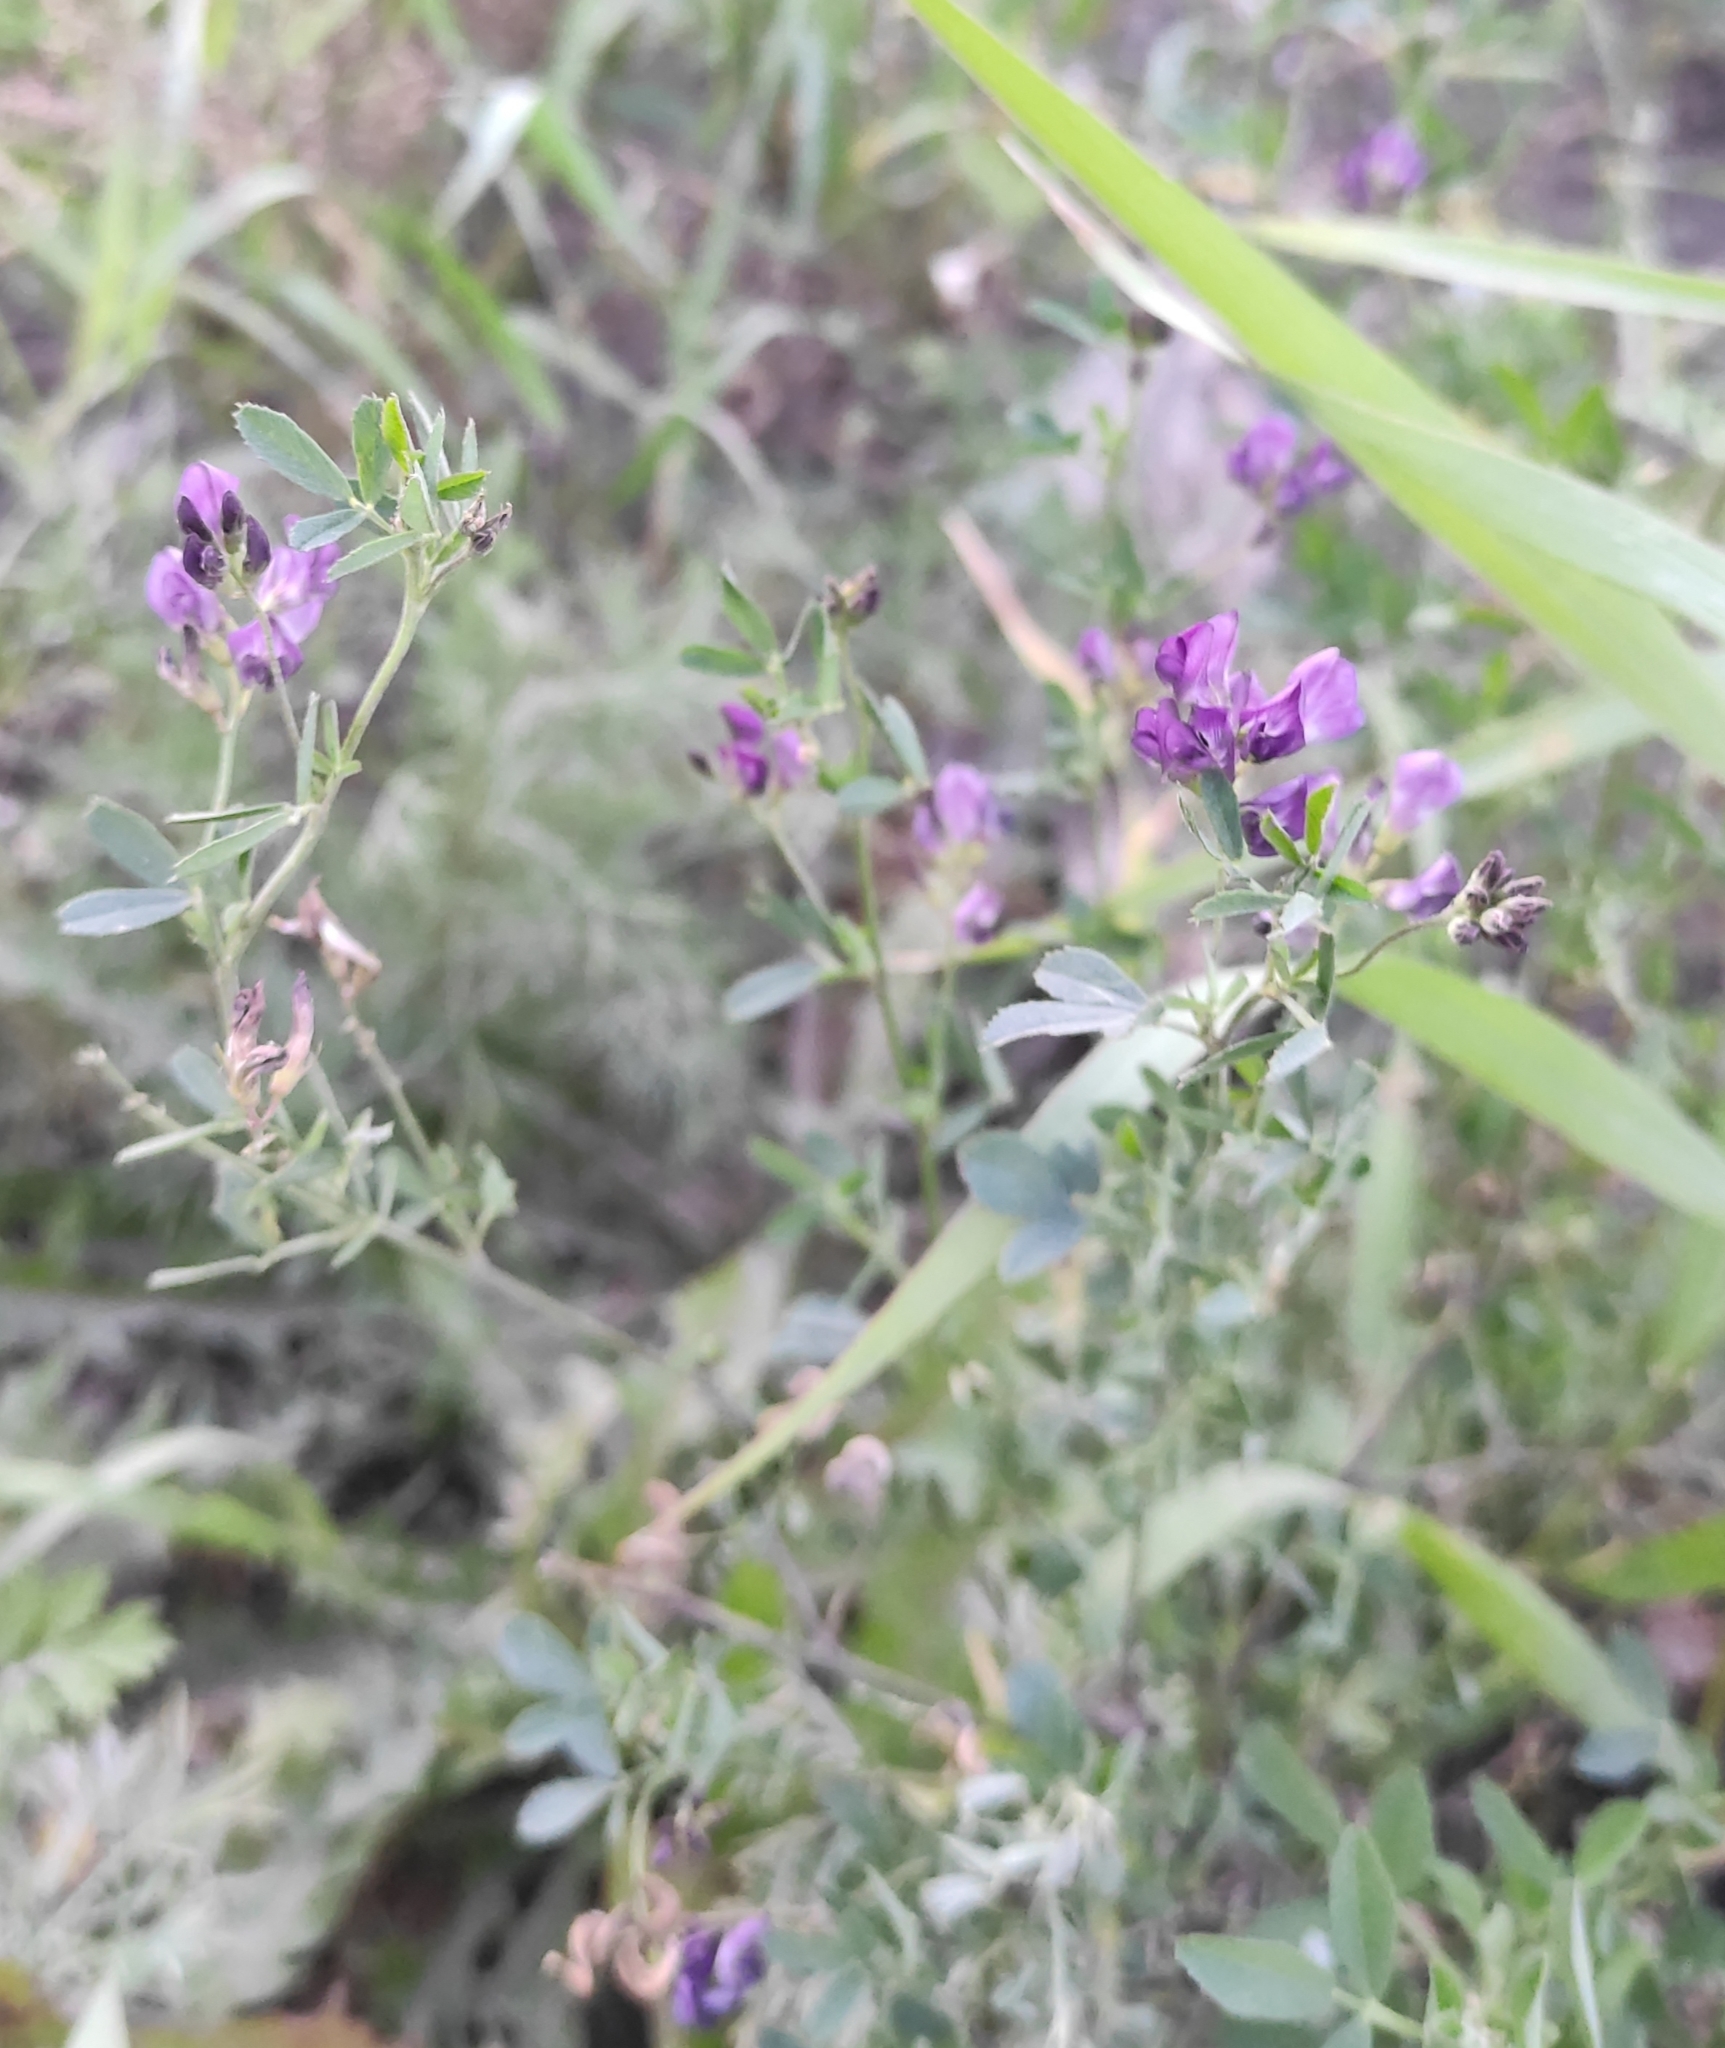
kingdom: Plantae
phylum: Tracheophyta
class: Magnoliopsida
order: Fabales
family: Fabaceae
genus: Medicago
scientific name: Medicago sativa
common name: Alfalfa
